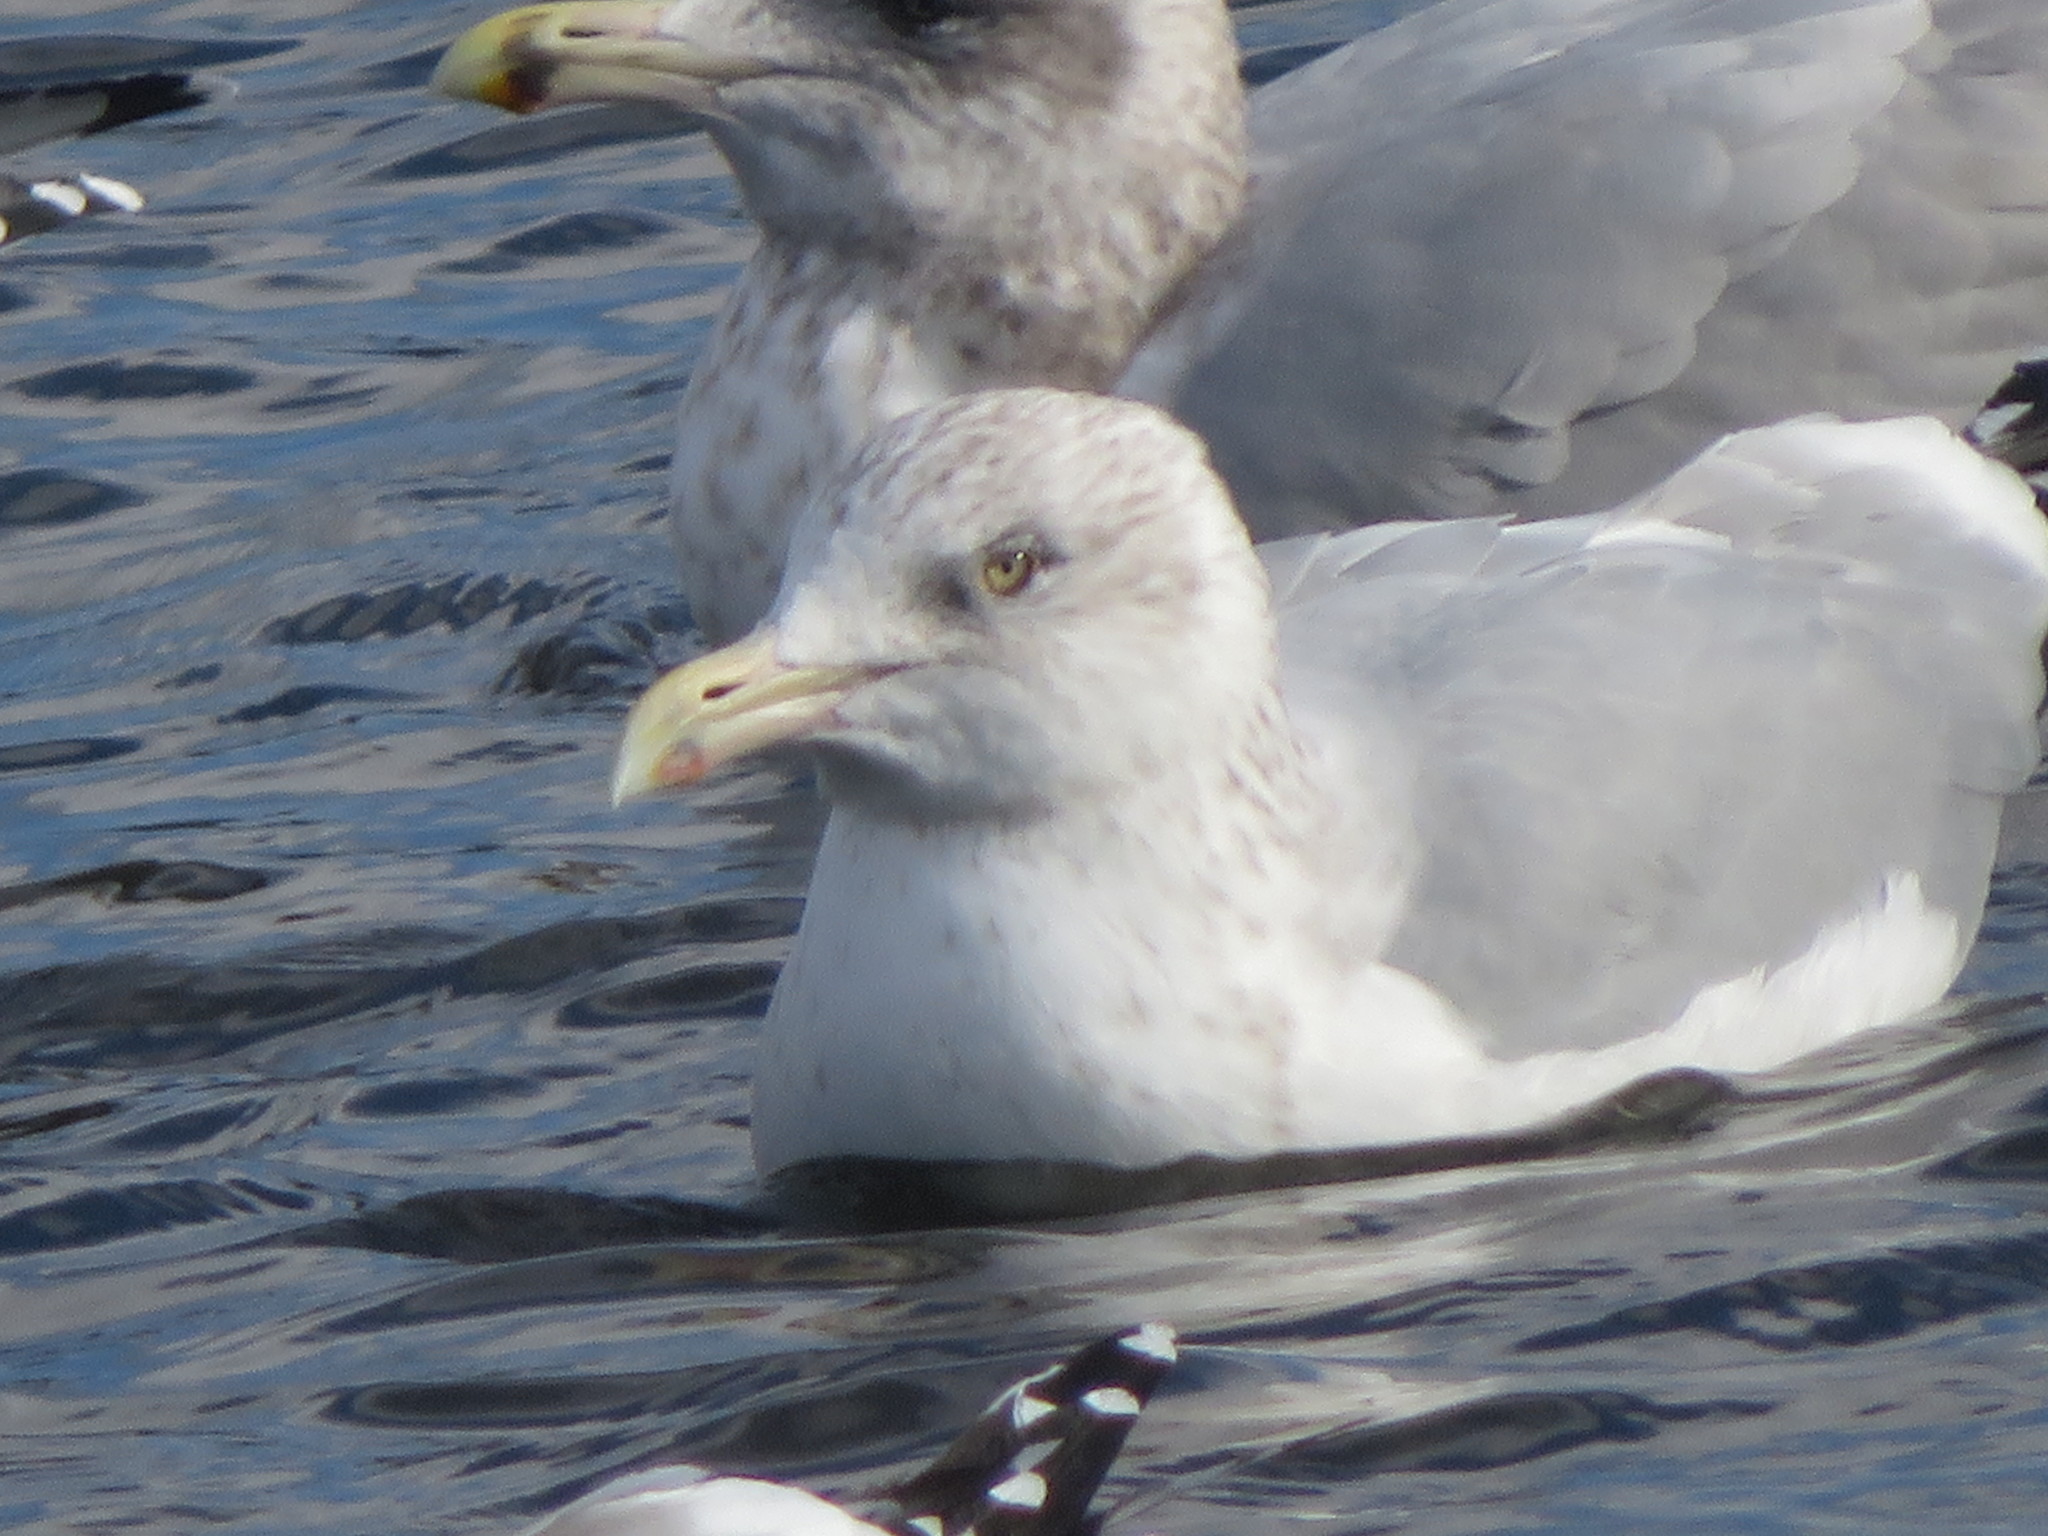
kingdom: Animalia
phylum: Chordata
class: Aves
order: Charadriiformes
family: Laridae
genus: Larus
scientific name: Larus argentatus
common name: Herring gull
